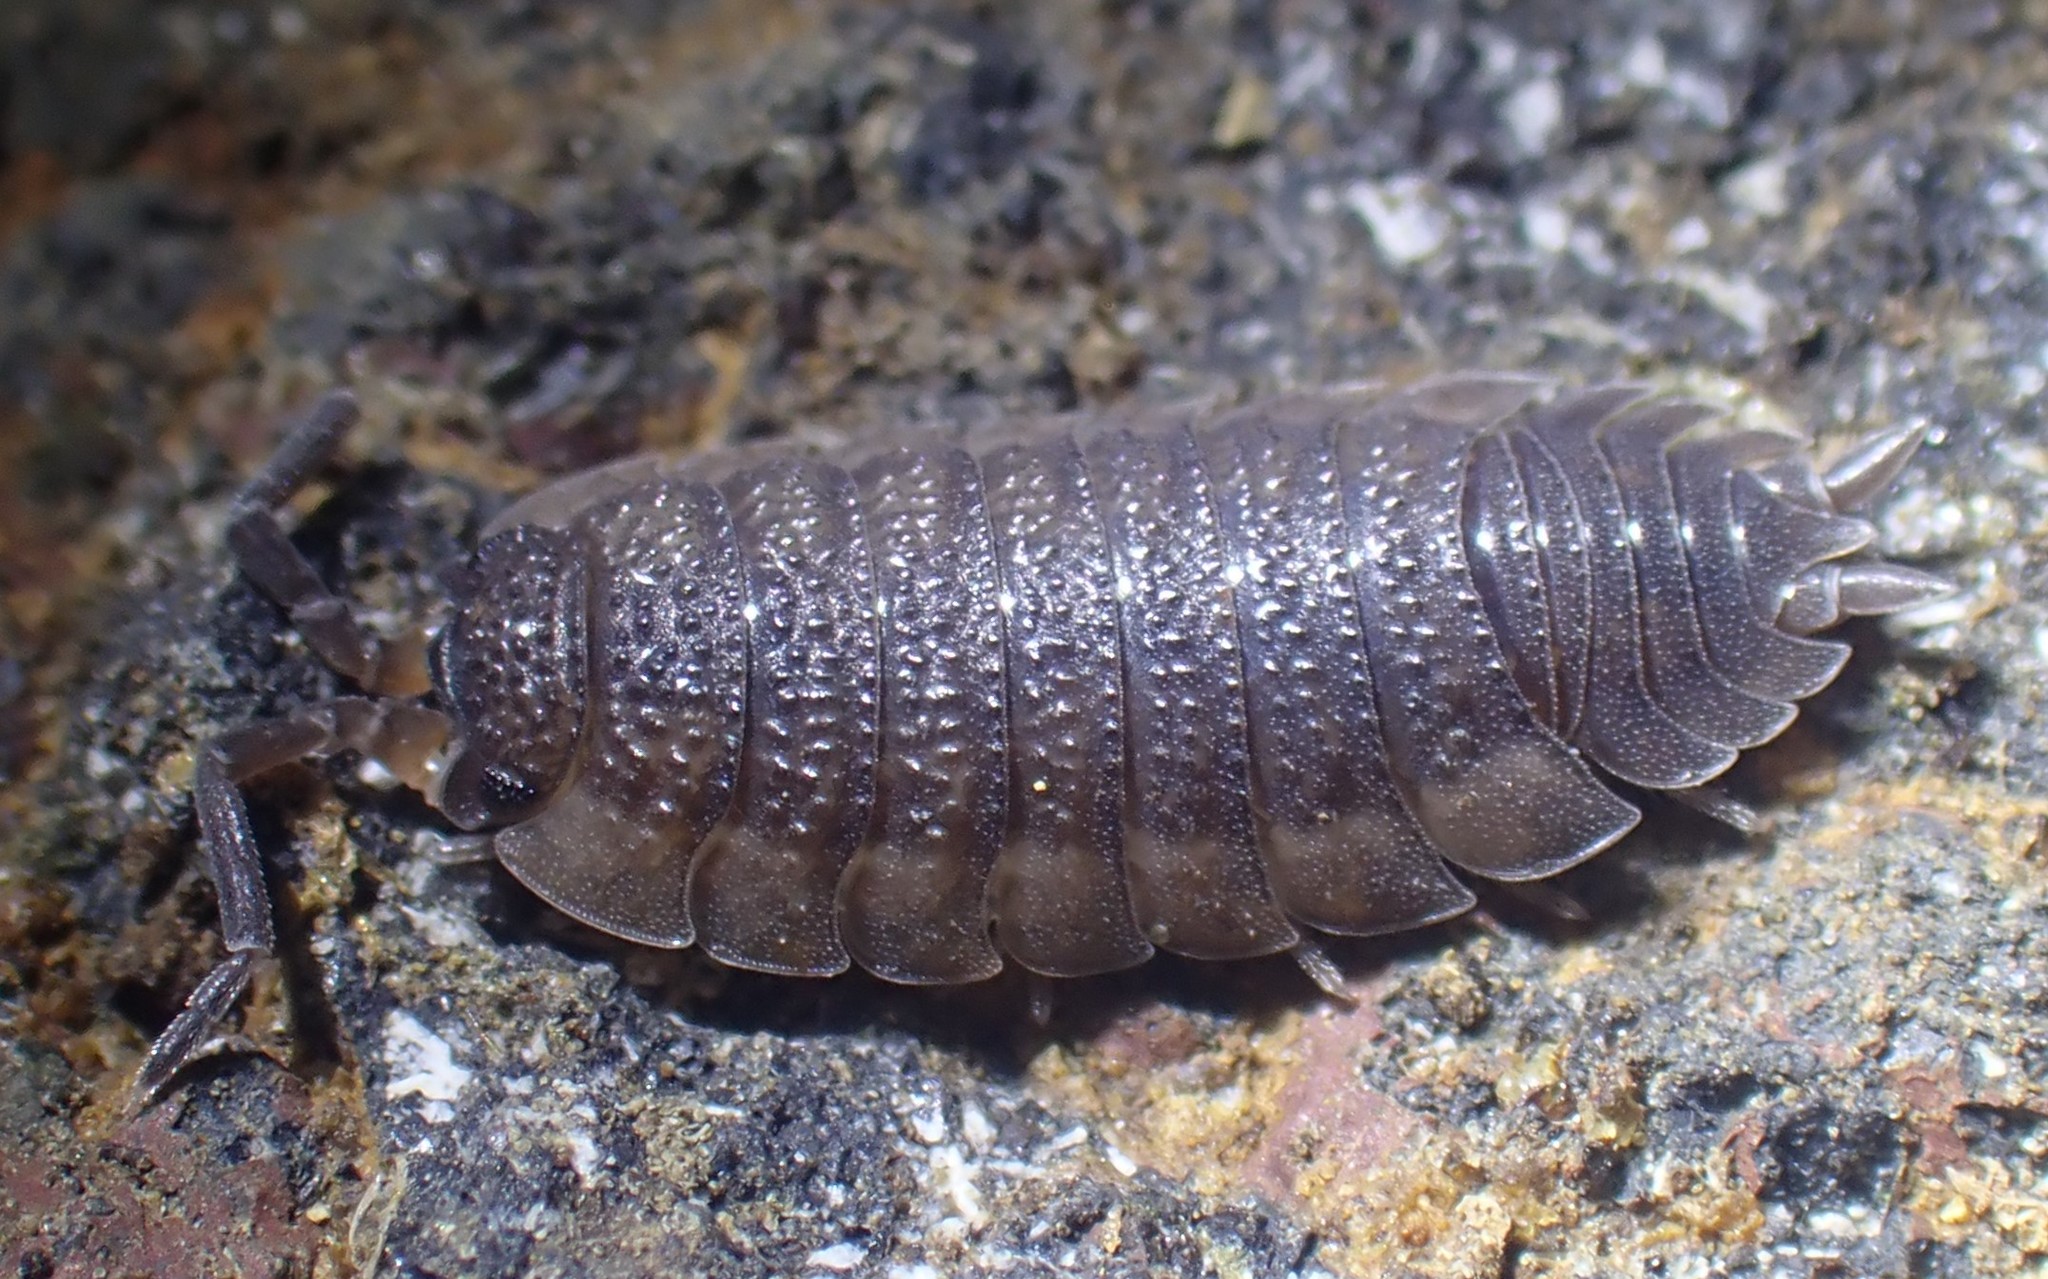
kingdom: Animalia
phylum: Arthropoda
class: Malacostraca
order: Isopoda
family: Porcellionidae
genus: Porcellio
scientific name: Porcellio scaber
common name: Common rough woodlouse
